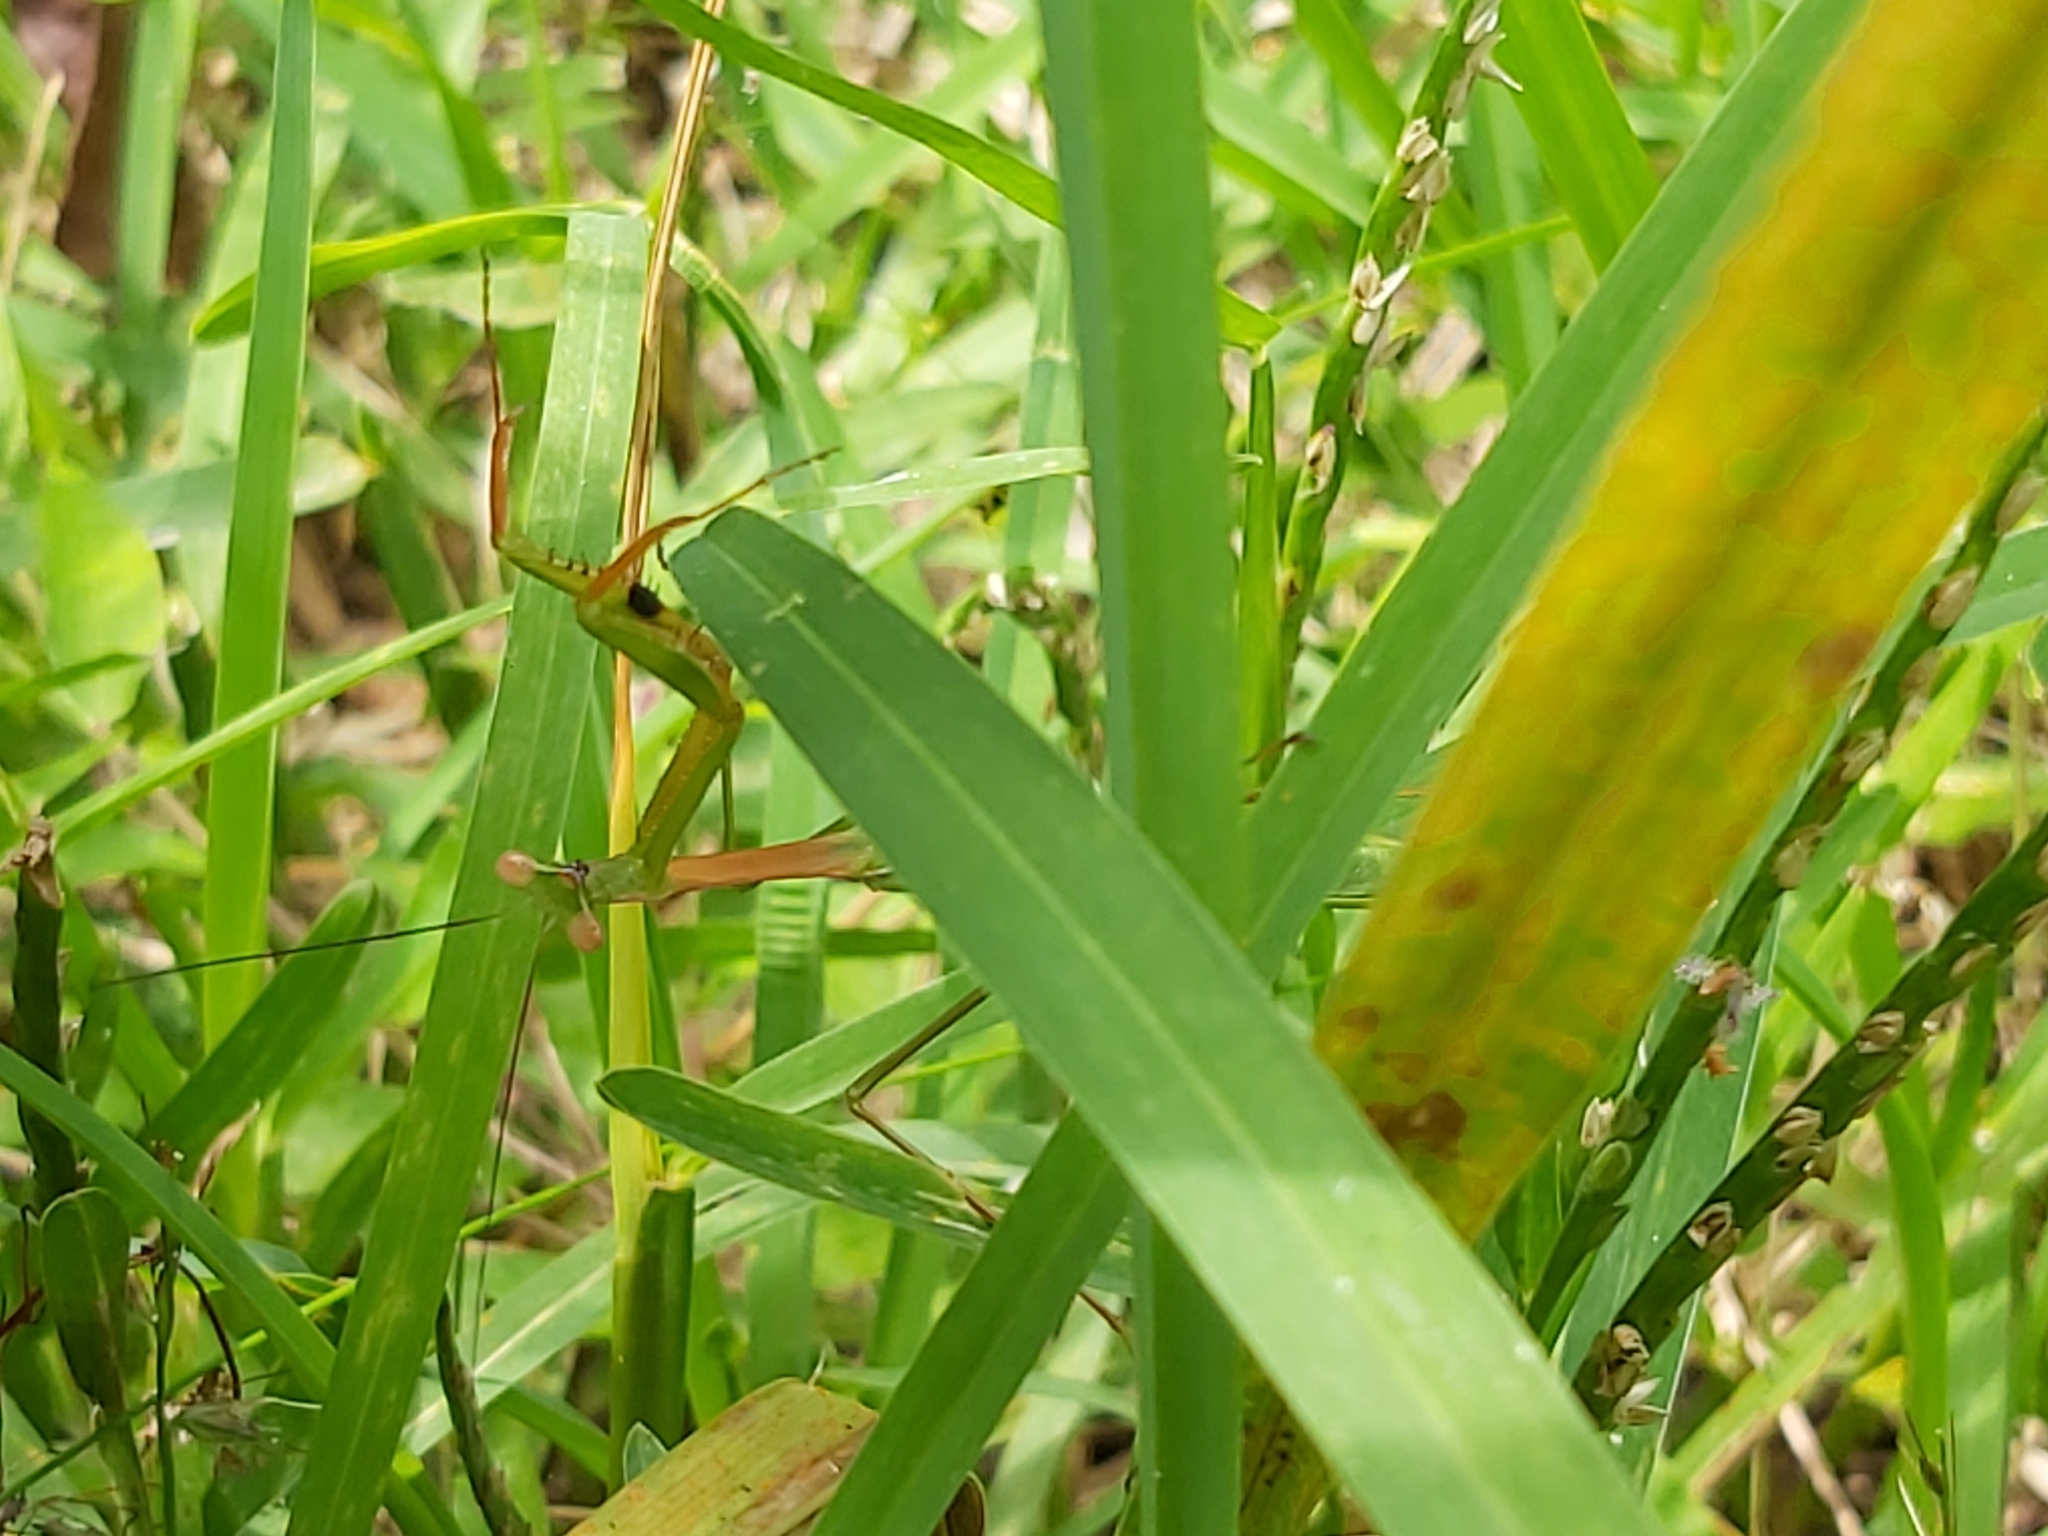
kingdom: Animalia
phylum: Arthropoda
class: Insecta
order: Mantodea
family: Mantidae
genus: Pseudomantis
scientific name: Pseudomantis albofimbriata
